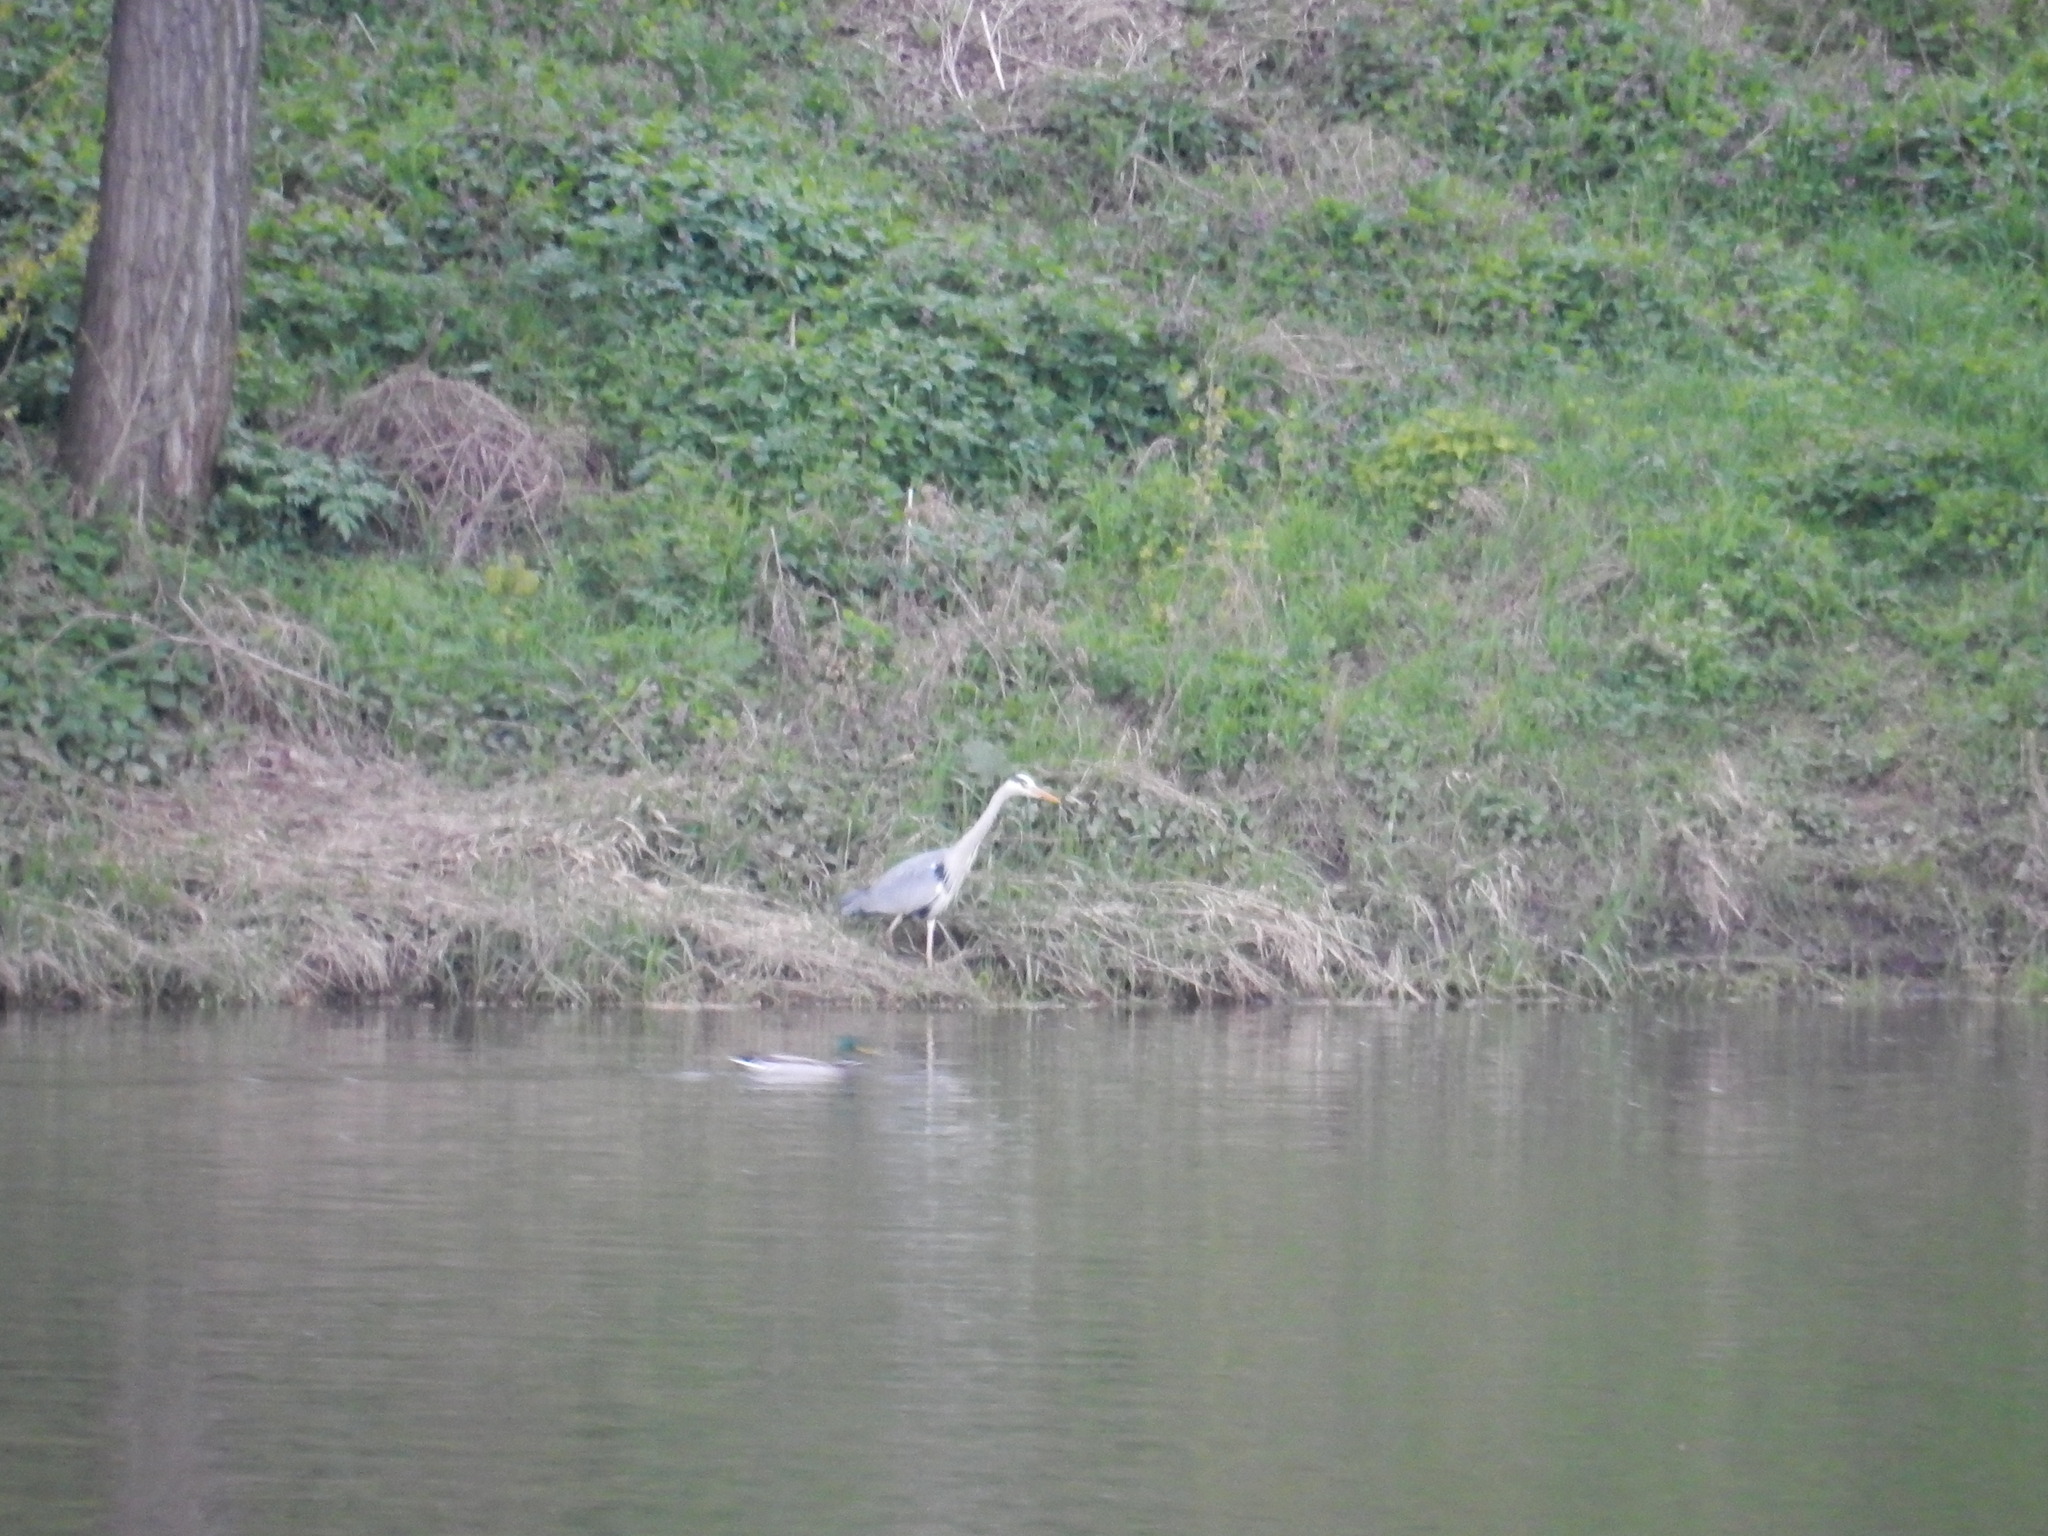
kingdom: Animalia
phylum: Chordata
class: Aves
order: Pelecaniformes
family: Ardeidae
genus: Ardea
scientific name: Ardea cinerea
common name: Grey heron
